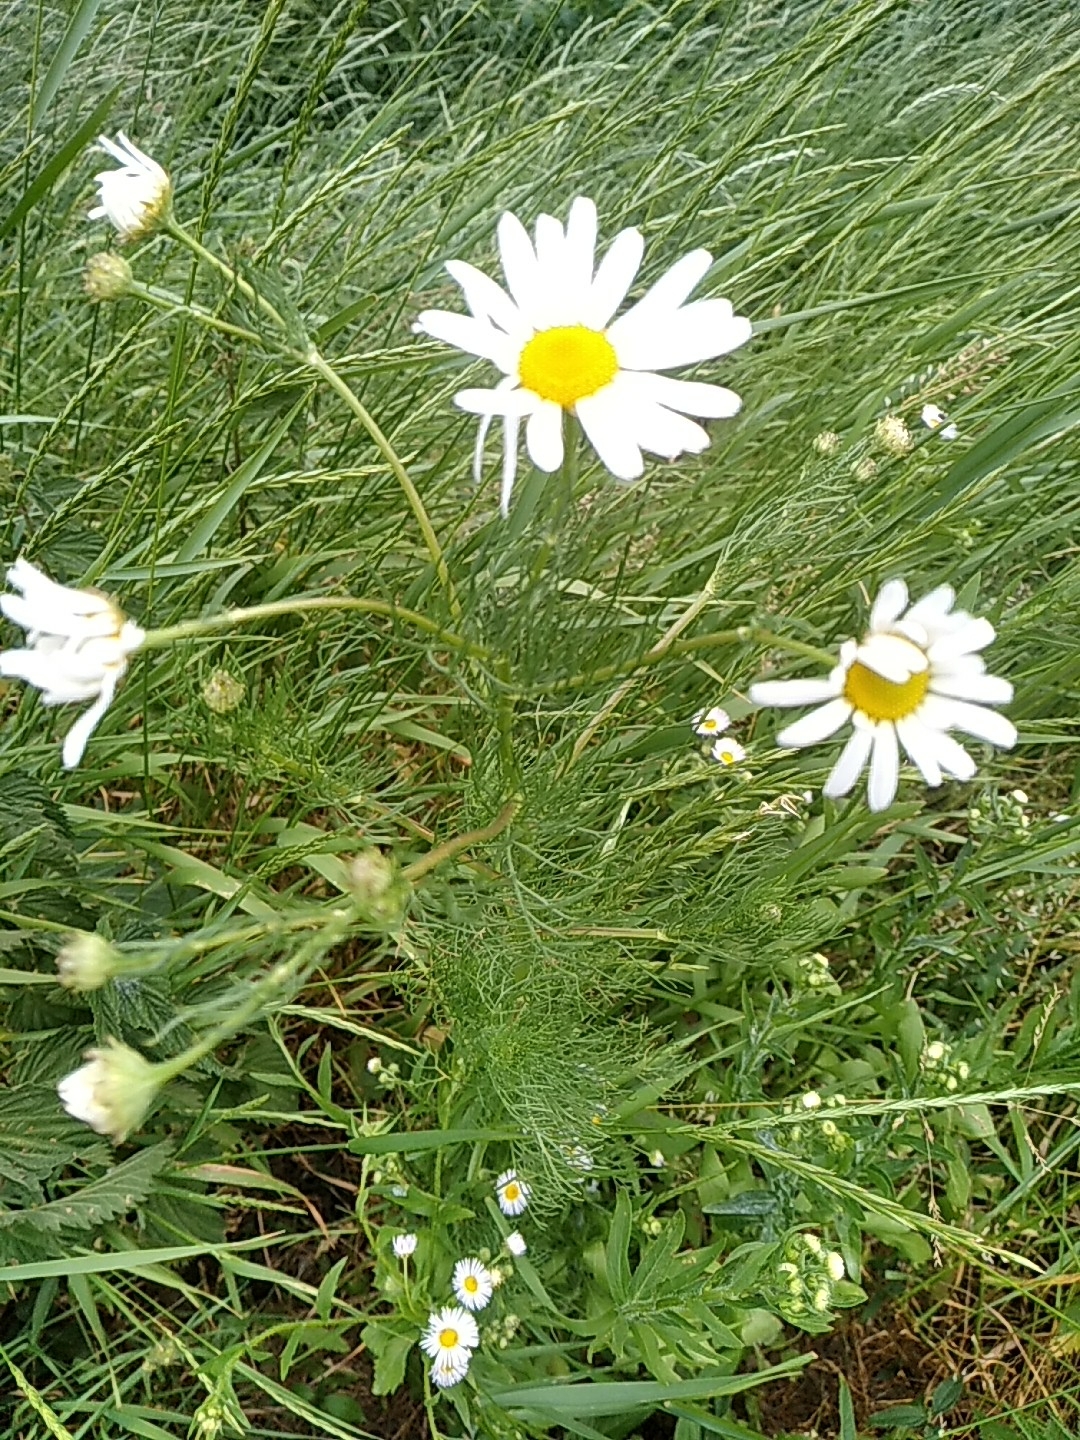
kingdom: Plantae
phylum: Tracheophyta
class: Magnoliopsida
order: Asterales
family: Asteraceae
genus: Tripleurospermum
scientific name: Tripleurospermum inodorum
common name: Scentless mayweed
